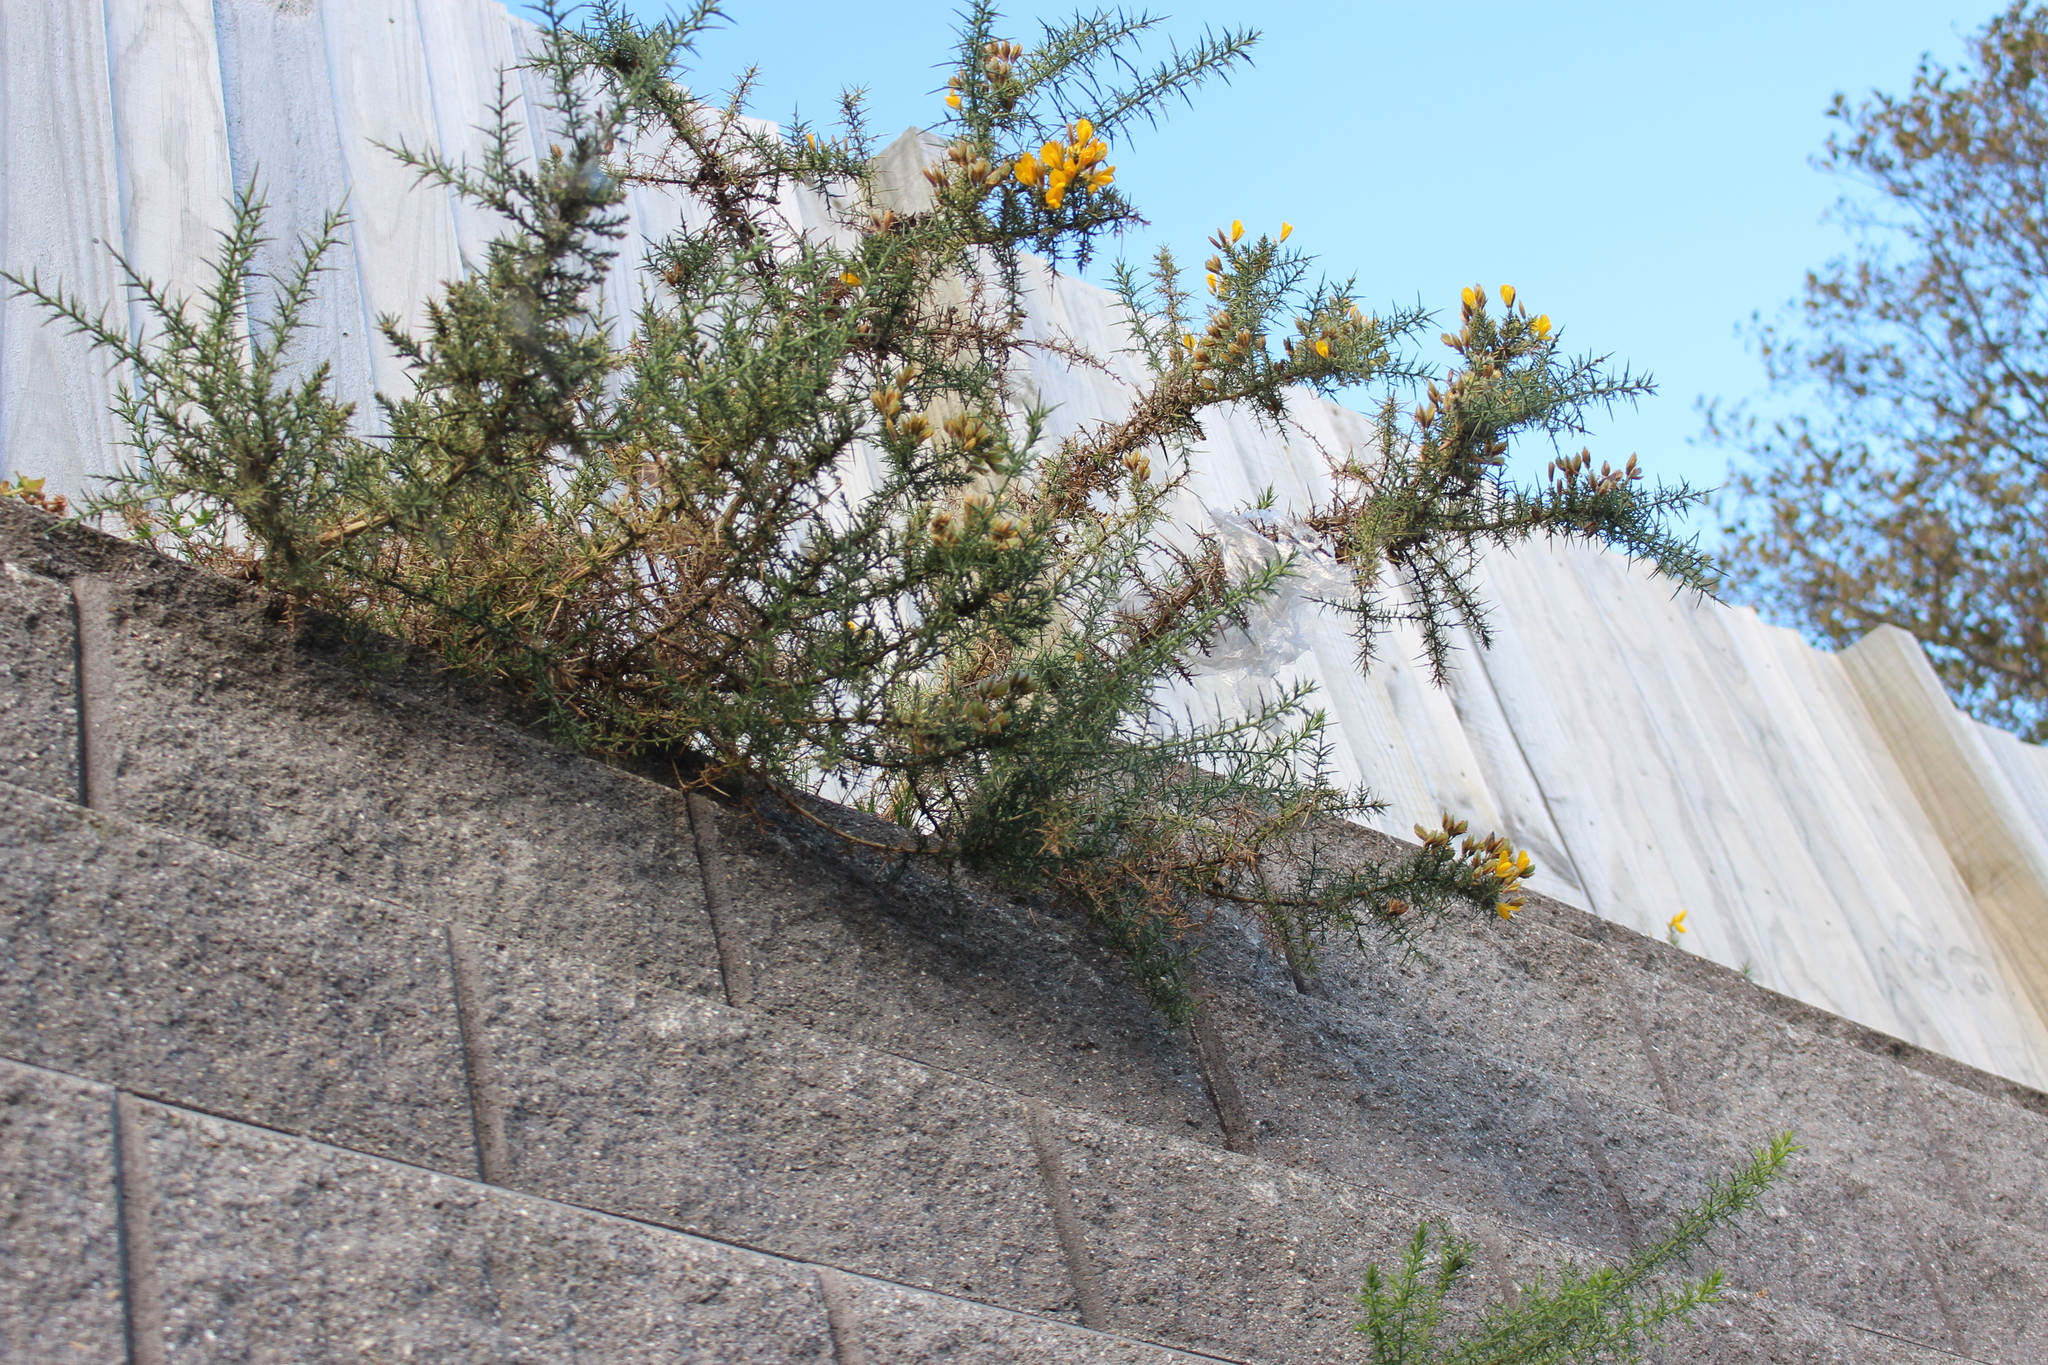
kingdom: Plantae
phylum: Tracheophyta
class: Magnoliopsida
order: Fabales
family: Fabaceae
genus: Ulex
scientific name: Ulex europaeus
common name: Common gorse
